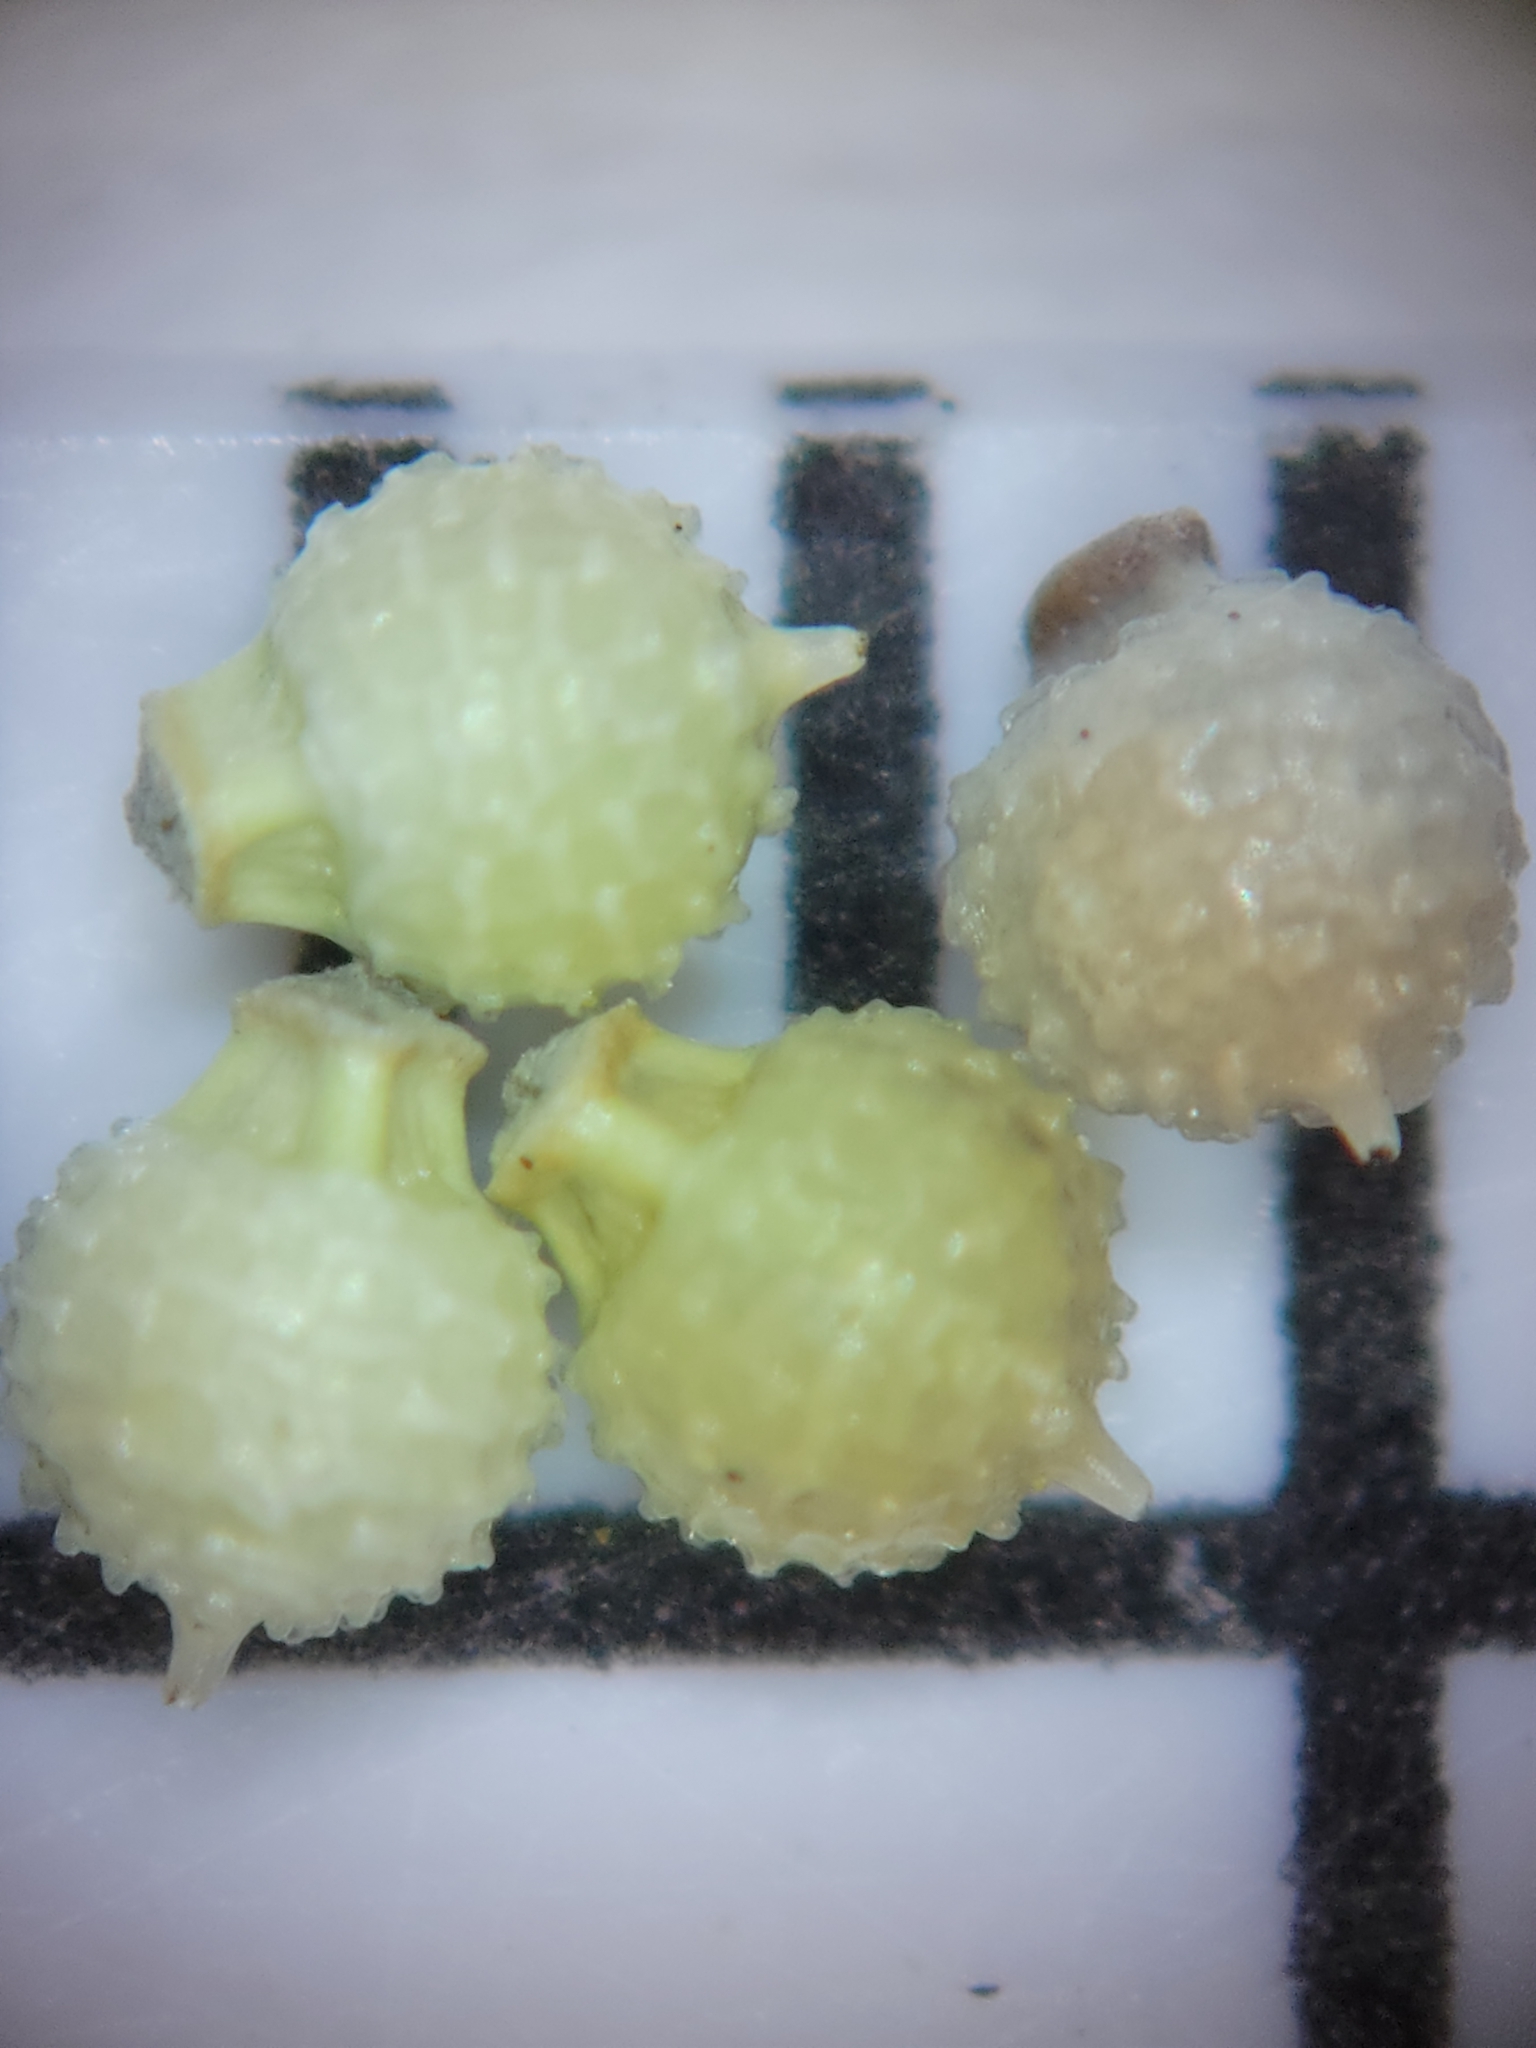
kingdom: Plantae
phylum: Tracheophyta
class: Liliopsida
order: Poales
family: Cyperaceae
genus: Scleria
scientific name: Scleria verticillata
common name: Low nutrush
